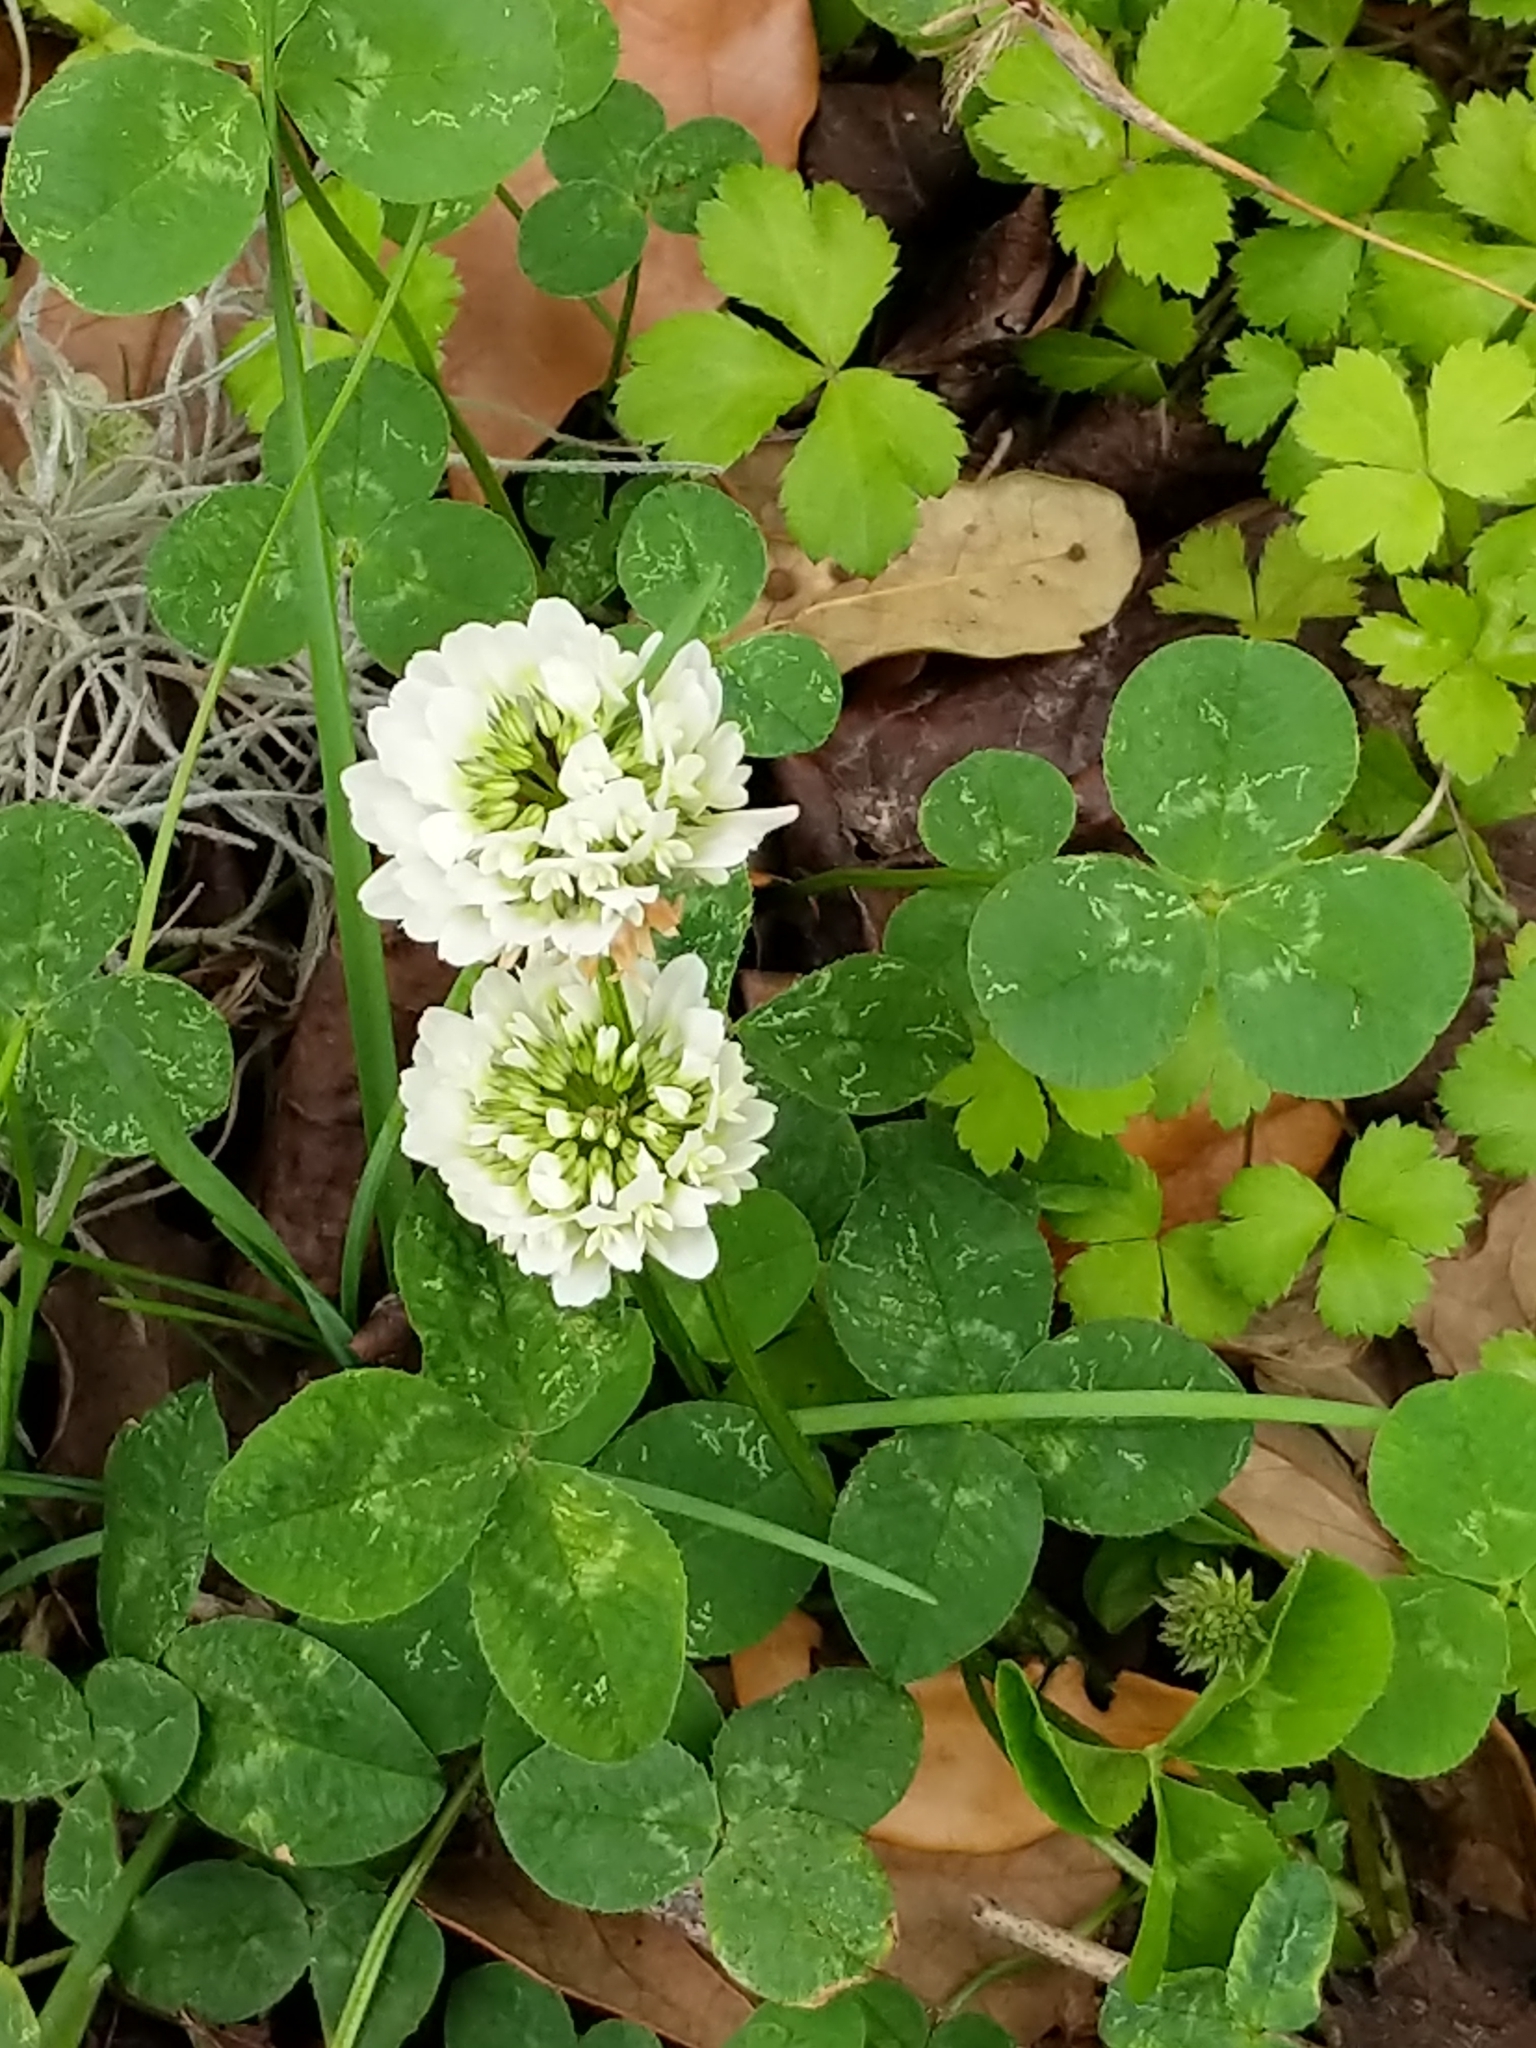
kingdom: Plantae
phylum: Tracheophyta
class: Magnoliopsida
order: Fabales
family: Fabaceae
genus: Trifolium
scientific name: Trifolium repens
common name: White clover
